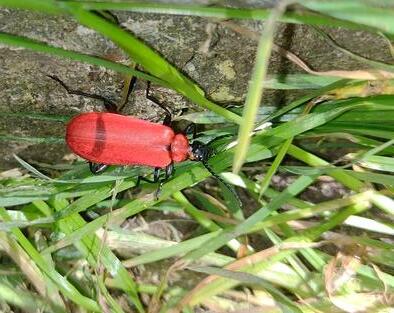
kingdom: Animalia
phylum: Arthropoda
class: Insecta
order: Coleoptera
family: Pyrochroidae
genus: Pyrochroa
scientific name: Pyrochroa coccinea
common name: Black-headed cardinal beetle
